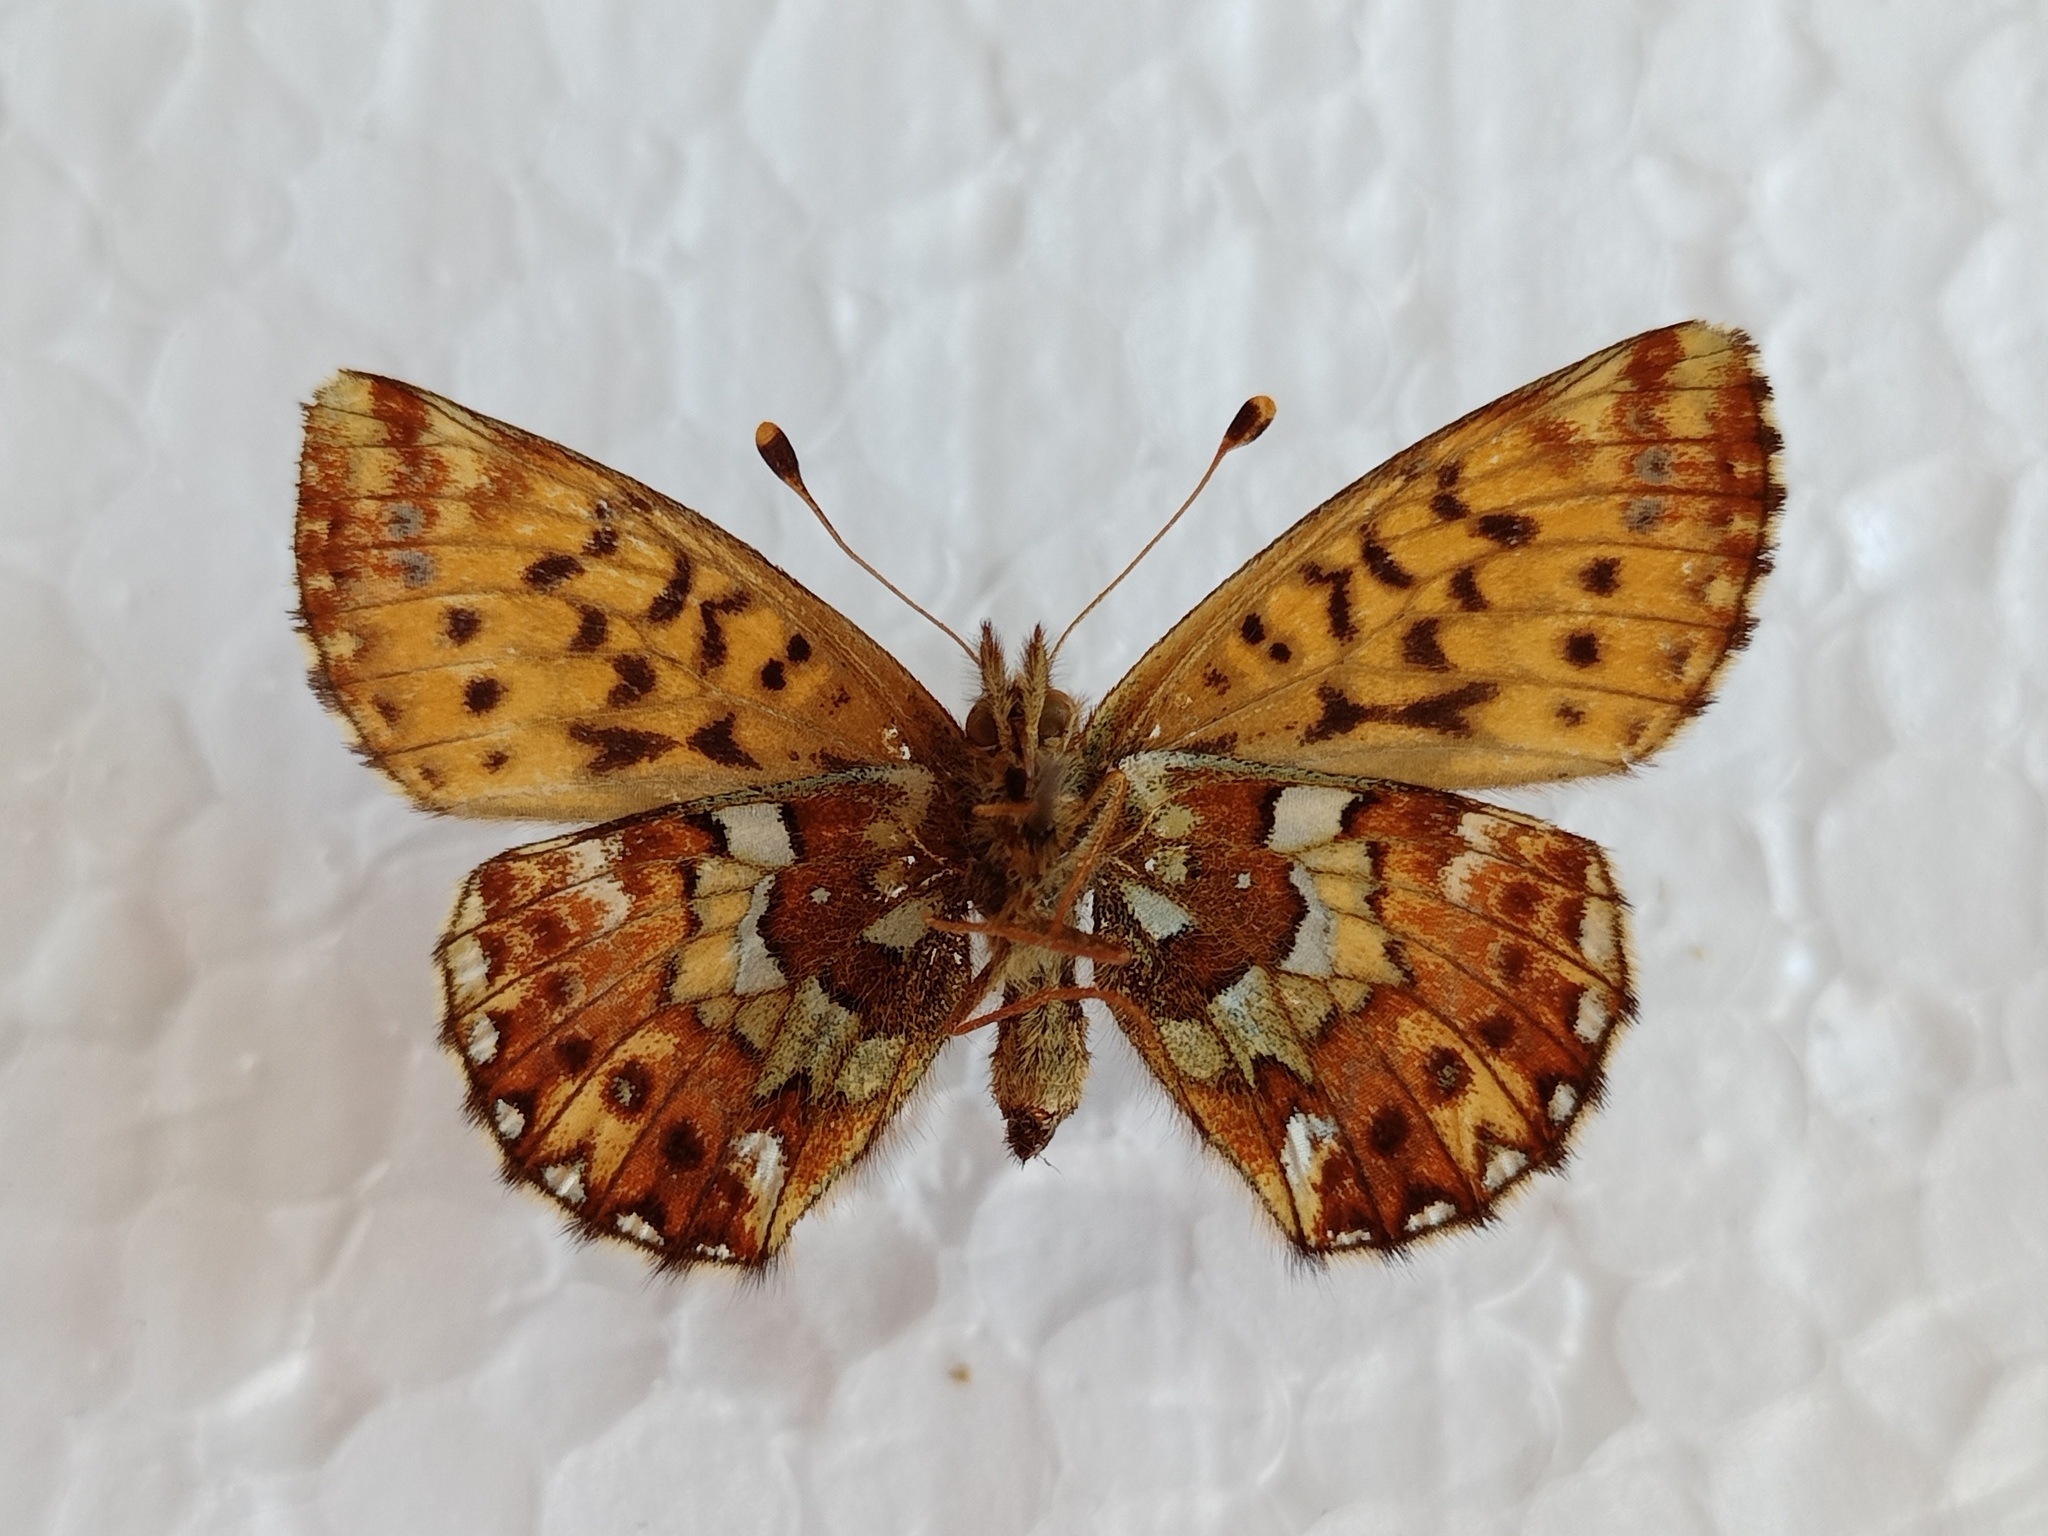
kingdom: Animalia
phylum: Arthropoda
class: Insecta
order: Lepidoptera
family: Nymphalidae
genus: Boloria
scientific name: Boloria aquilonaris
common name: Cranberry fritillary
